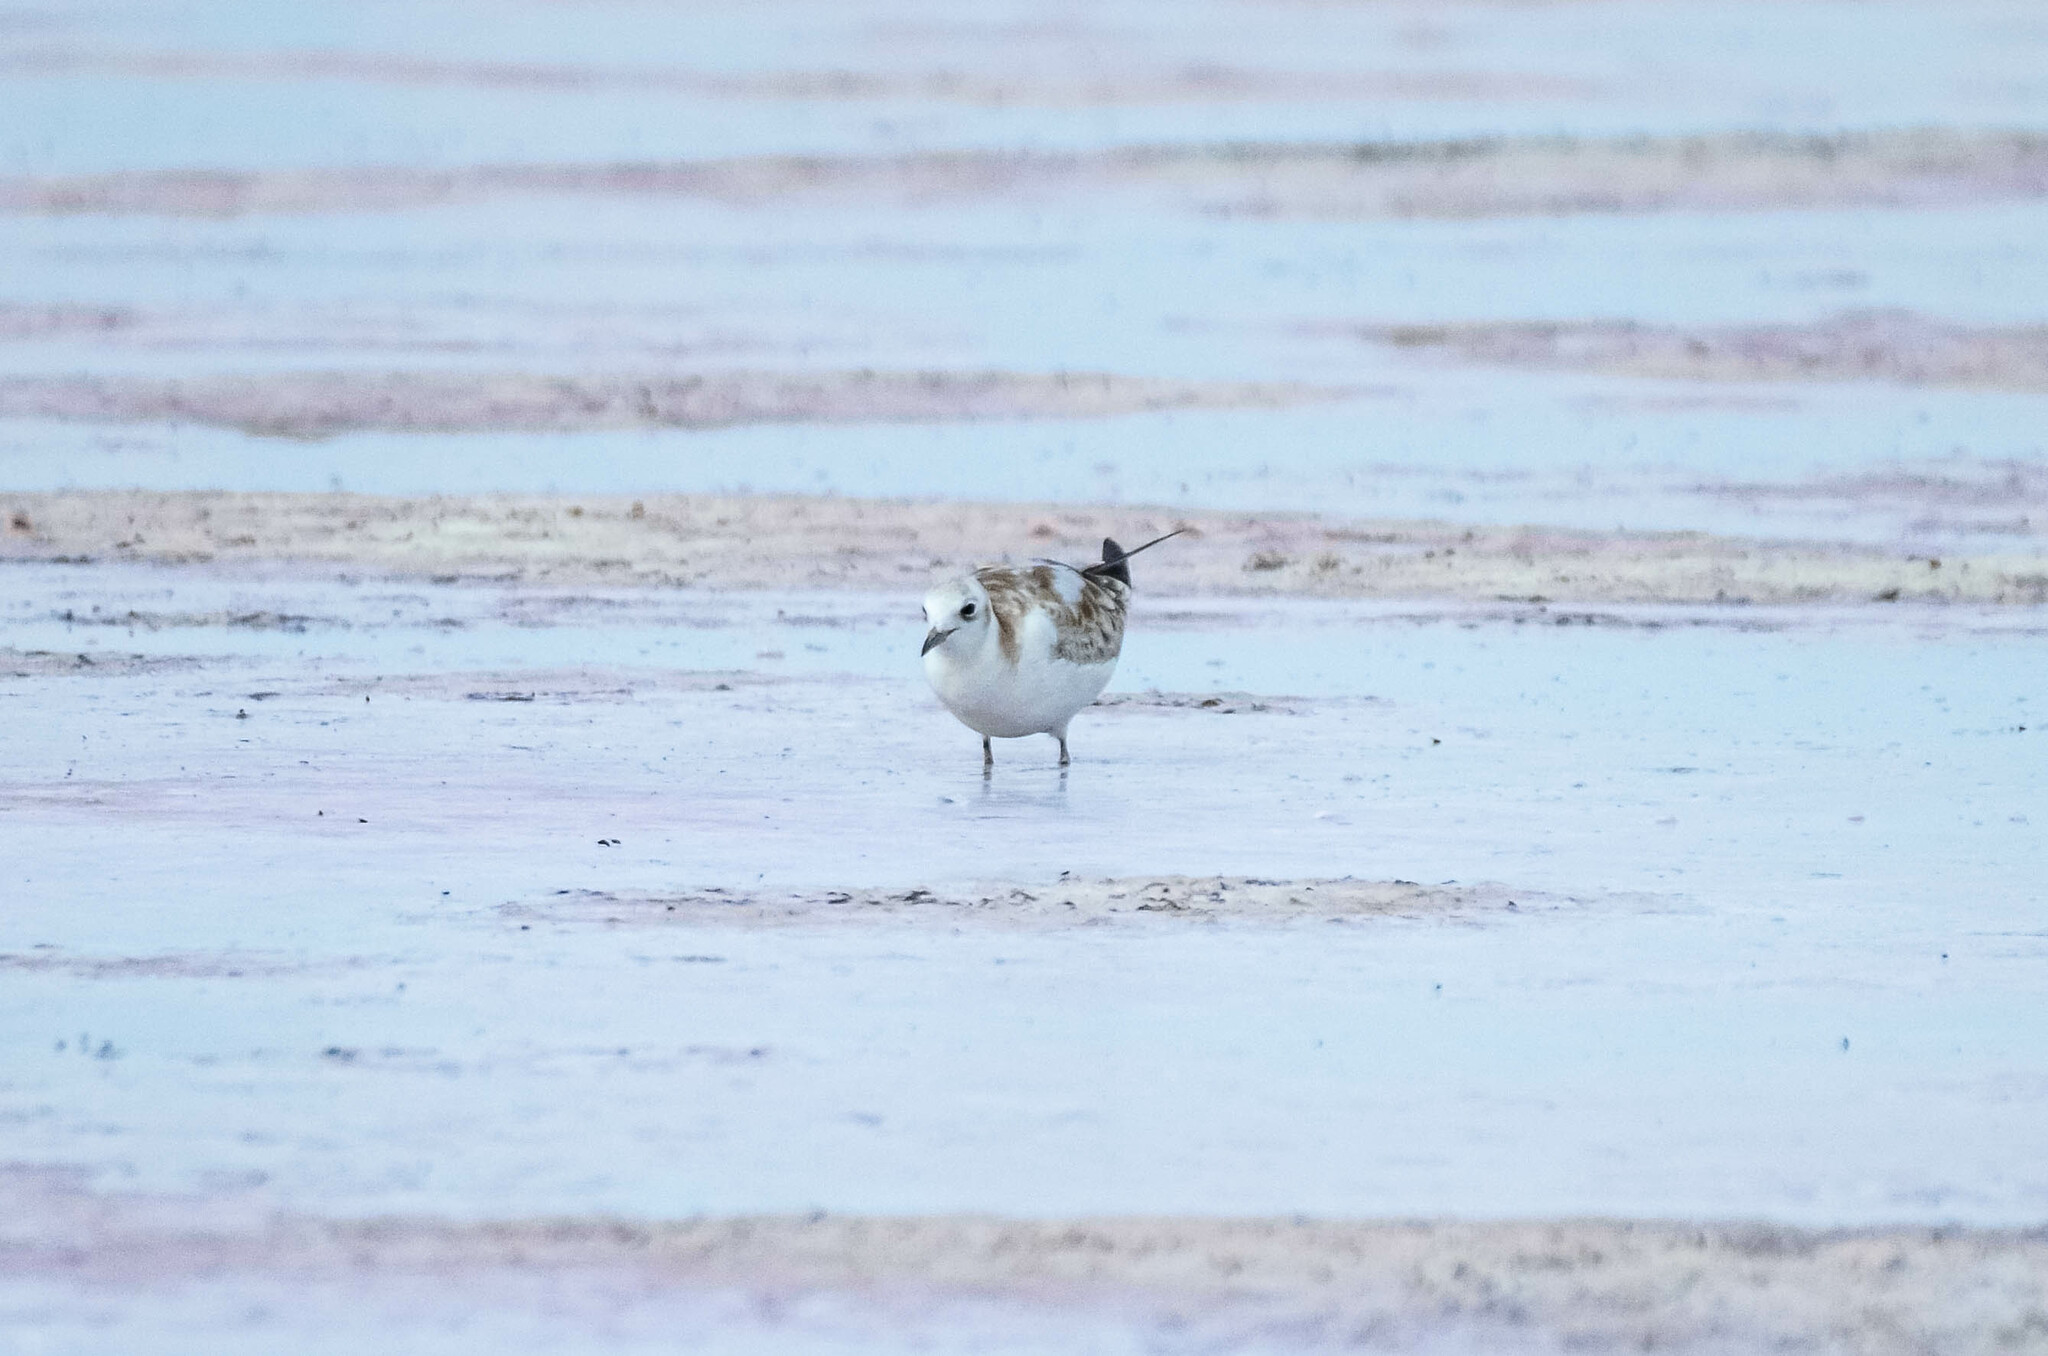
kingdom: Animalia
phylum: Chordata
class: Aves
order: Charadriiformes
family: Laridae
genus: Chroicocephalus
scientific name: Chroicocephalus ridibundus
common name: Black-headed gull
